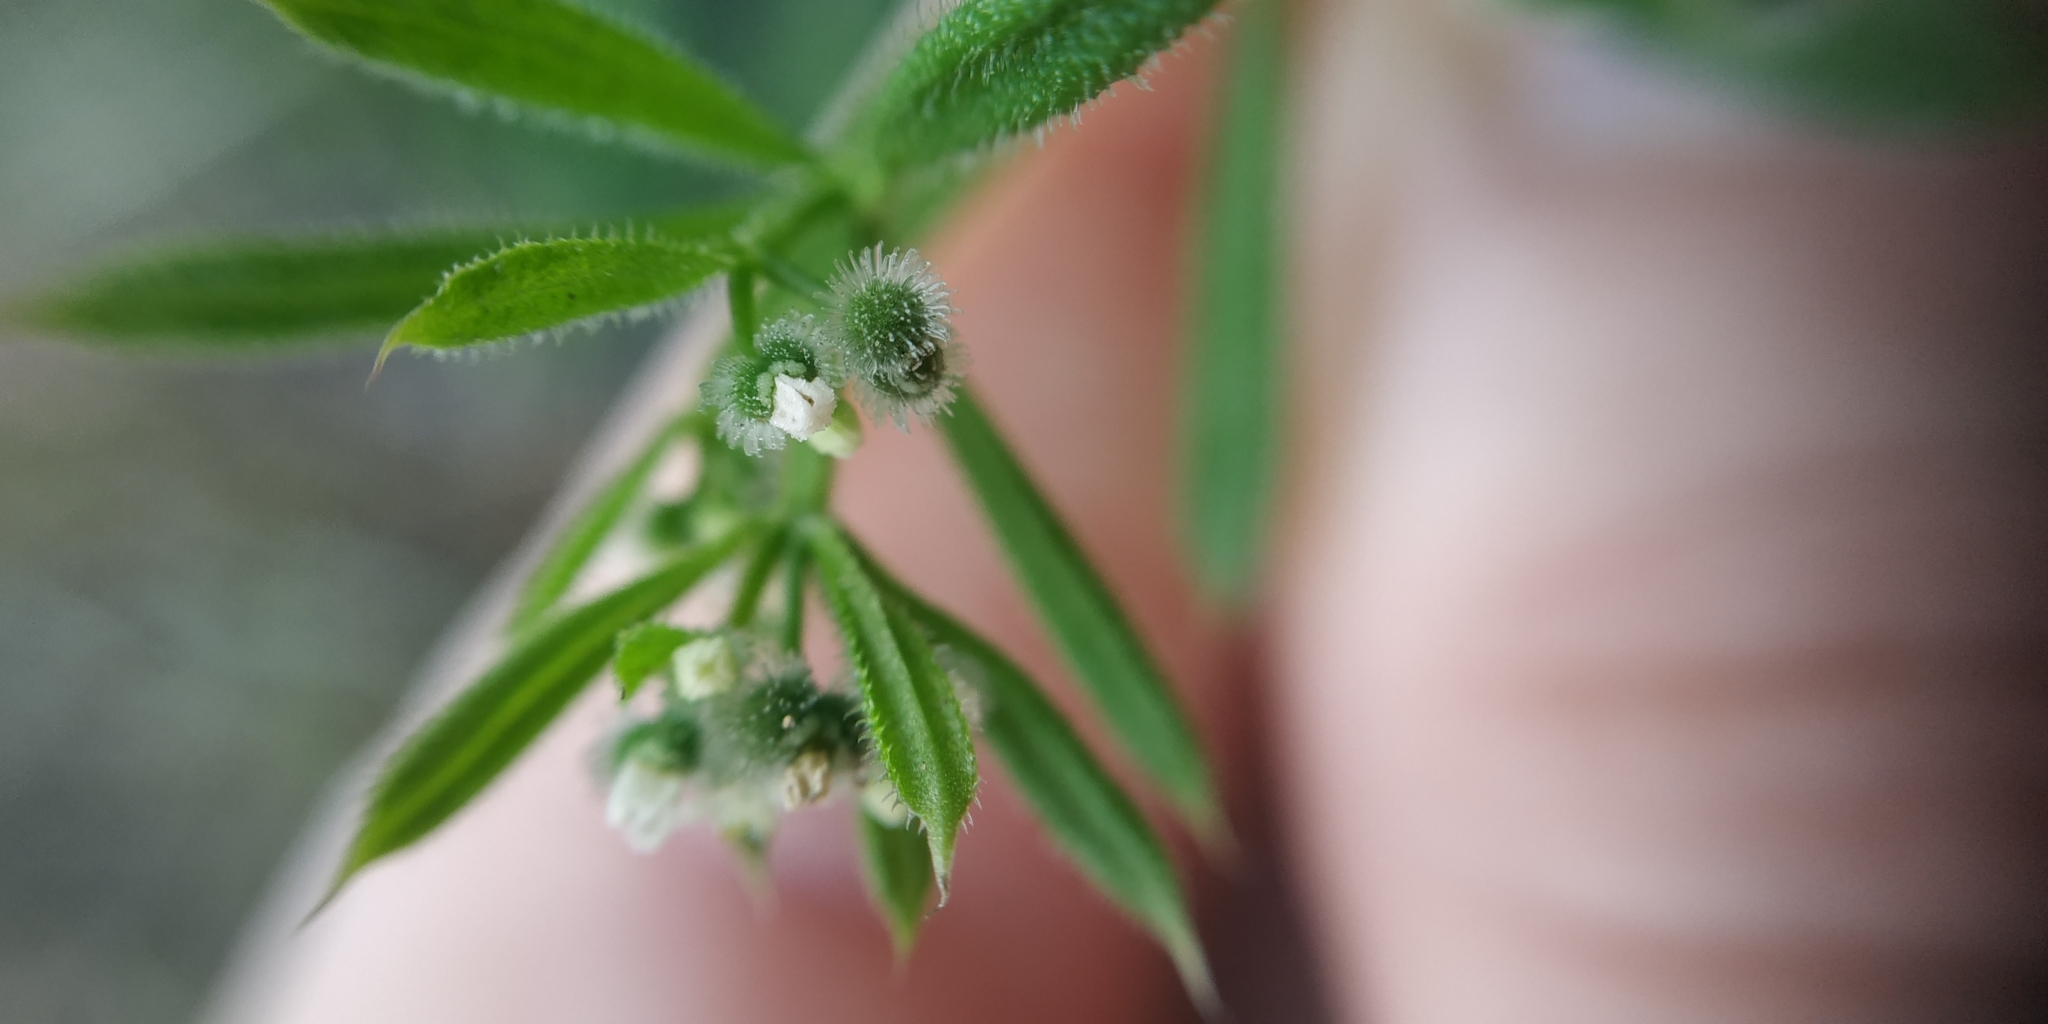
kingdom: Plantae
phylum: Tracheophyta
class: Magnoliopsida
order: Gentianales
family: Rubiaceae
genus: Galium
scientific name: Galium aparine
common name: Cleavers
